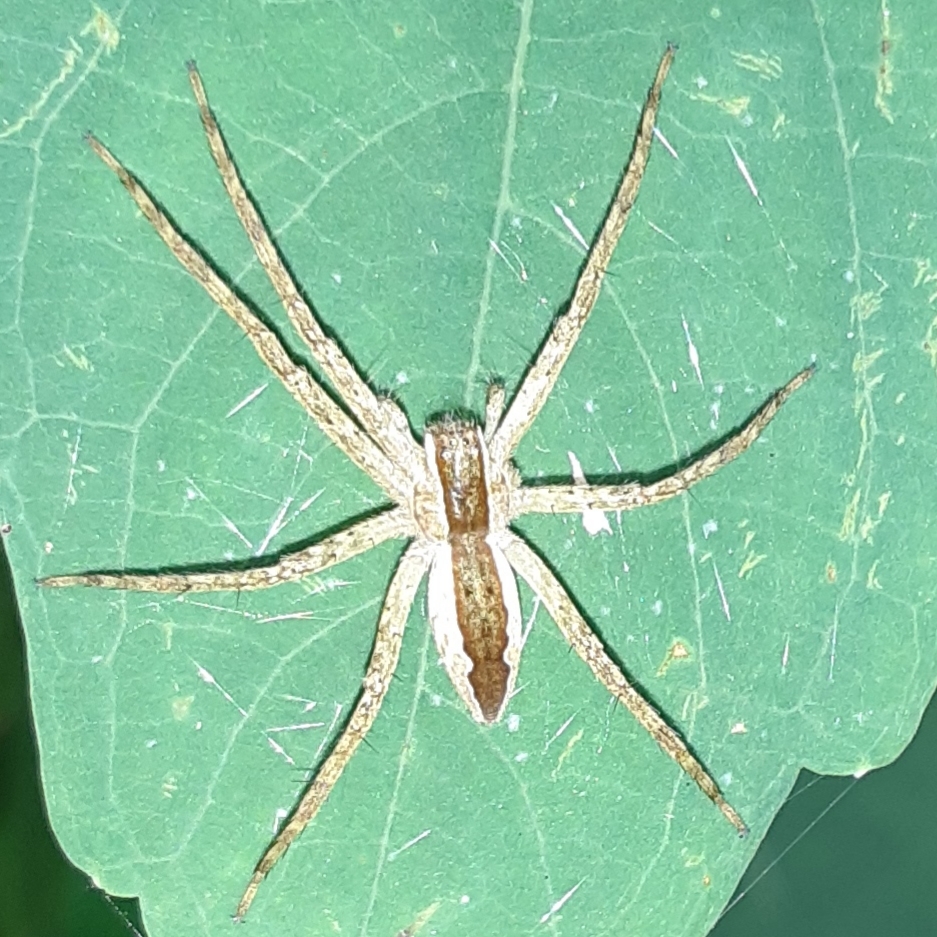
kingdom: Animalia
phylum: Arthropoda
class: Arachnida
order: Araneae
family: Pisauridae
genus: Pisaurina
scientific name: Pisaurina mira
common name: American nursery web spider
